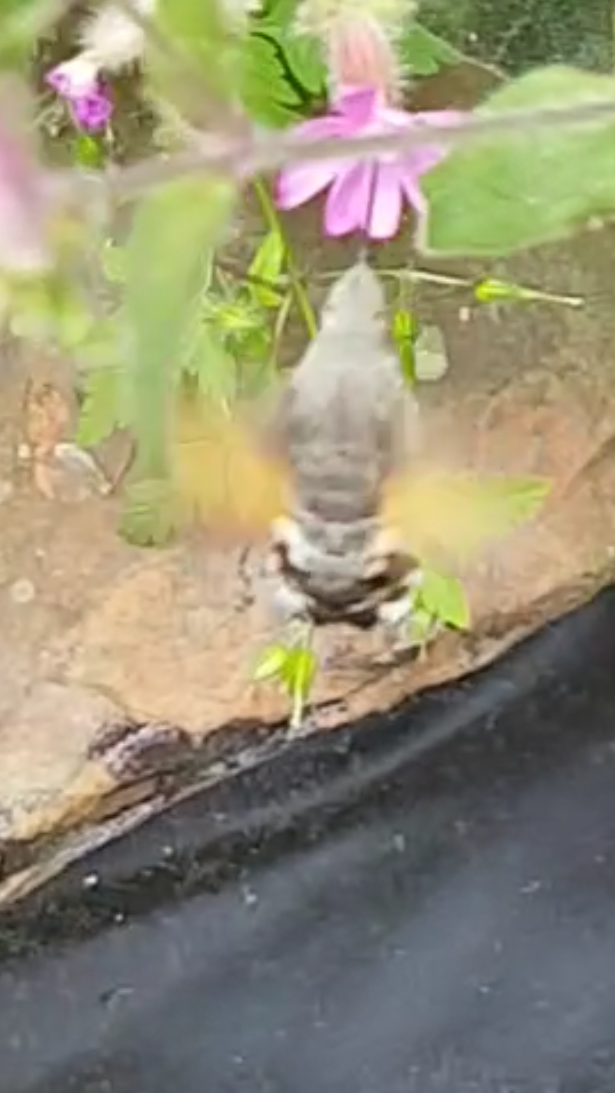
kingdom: Animalia
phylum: Arthropoda
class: Insecta
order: Lepidoptera
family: Sphingidae
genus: Macroglossum
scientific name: Macroglossum stellatarum
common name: Humming-bird hawk-moth
